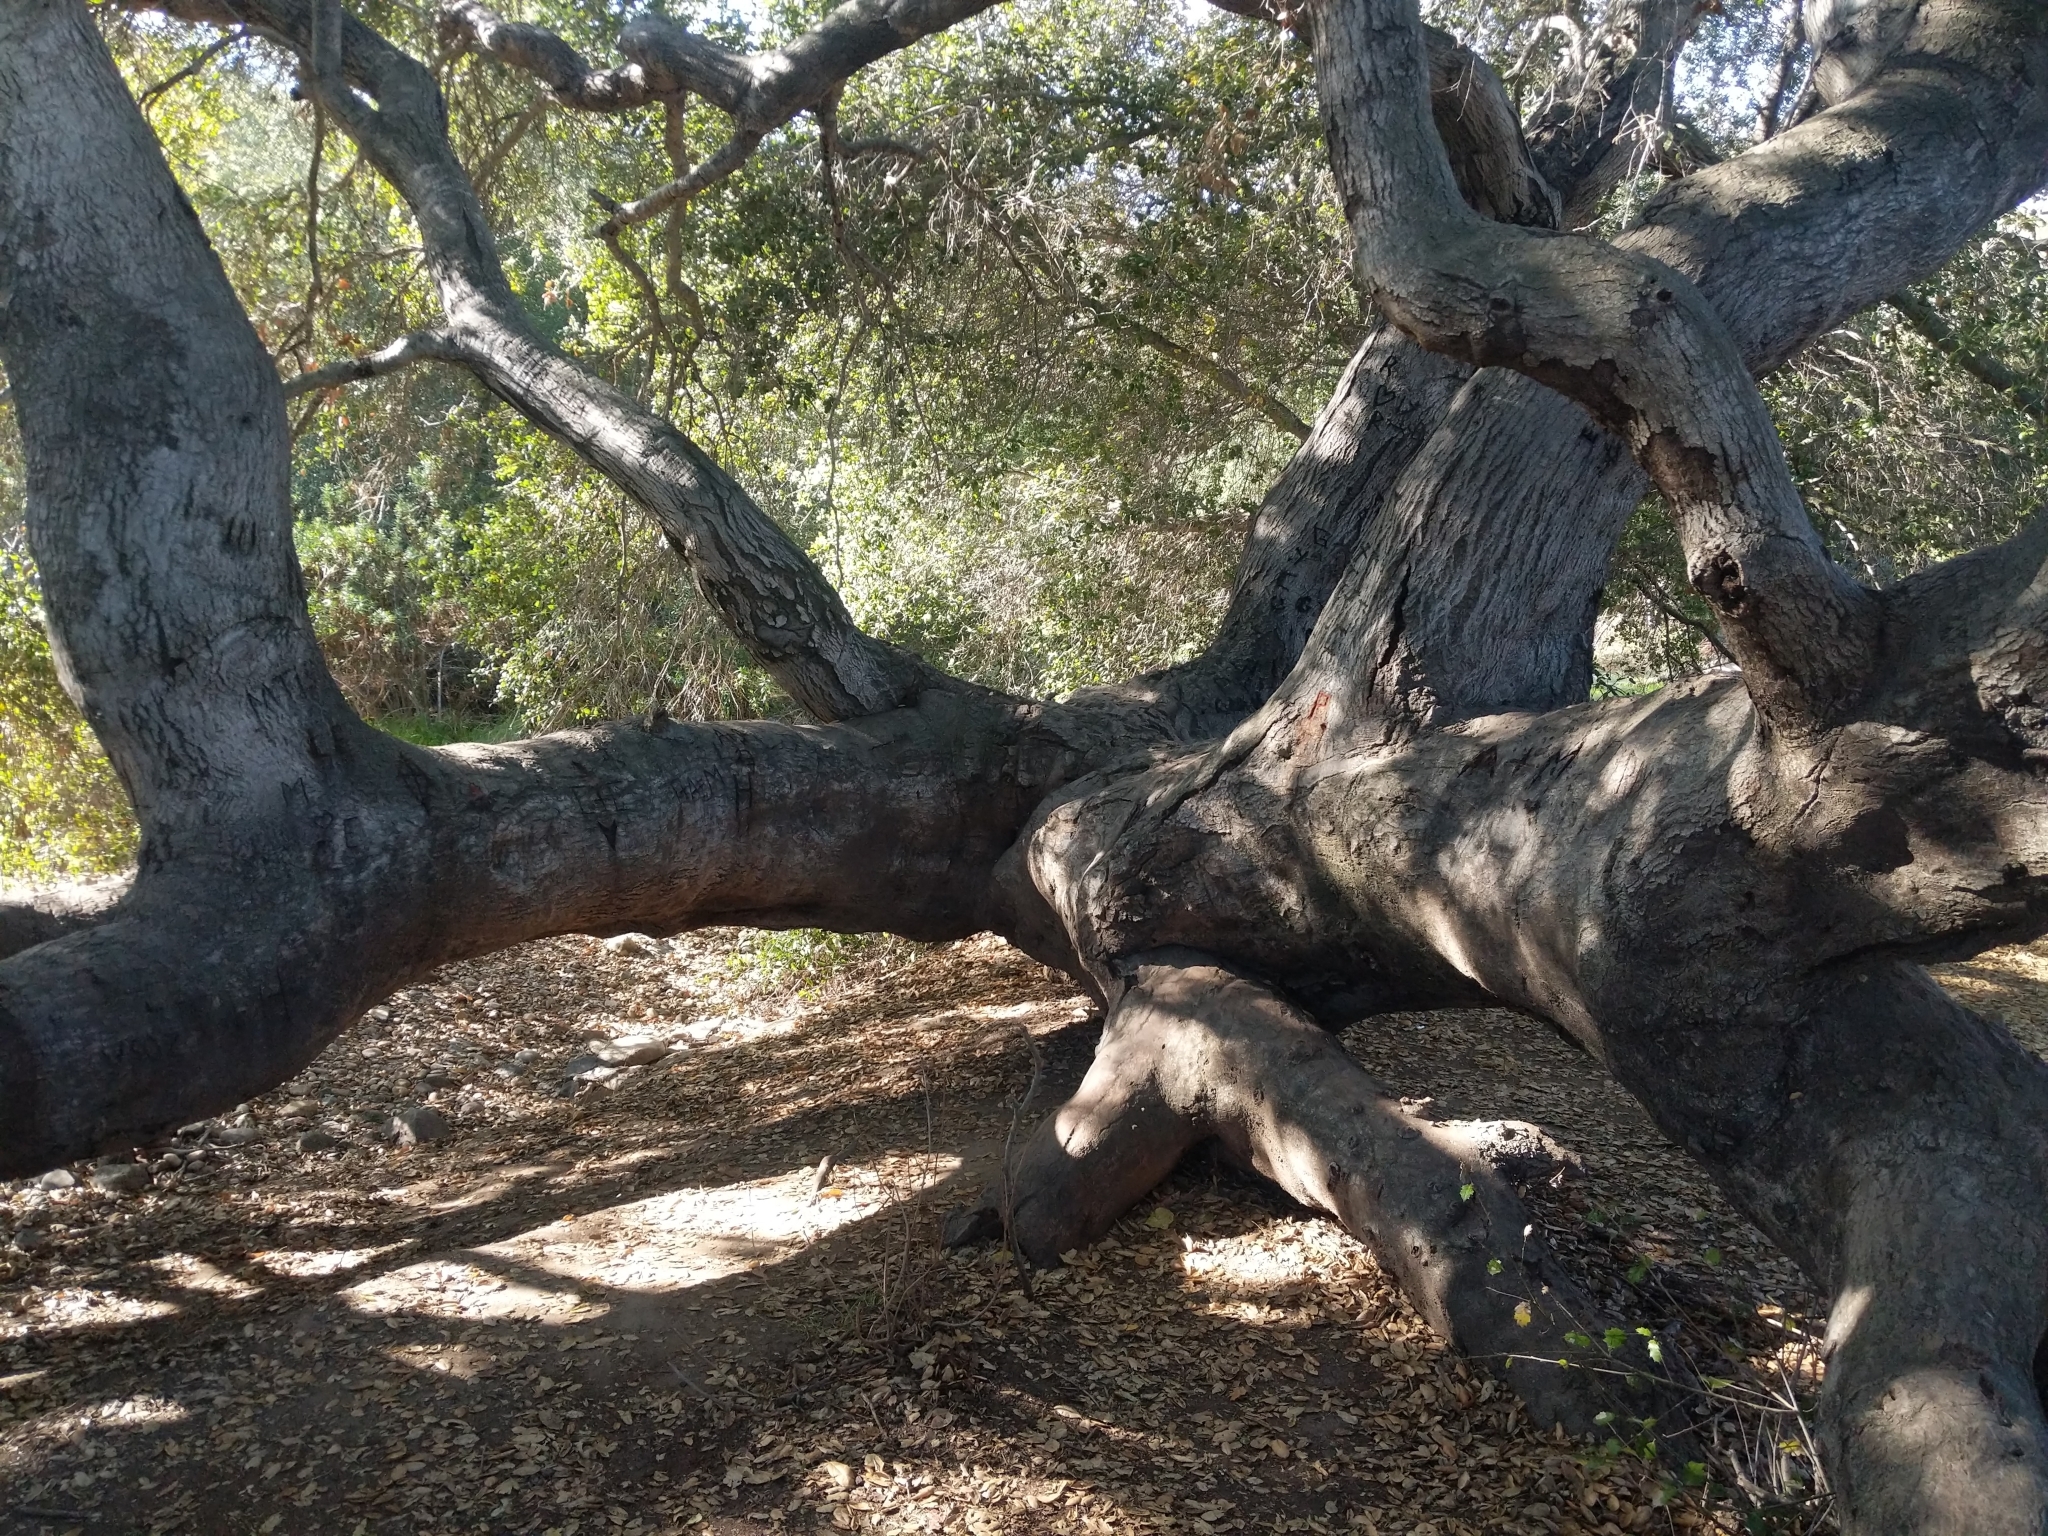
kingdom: Plantae
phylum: Tracheophyta
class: Magnoliopsida
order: Fagales
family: Fagaceae
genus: Quercus
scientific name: Quercus agrifolia
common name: California live oak
